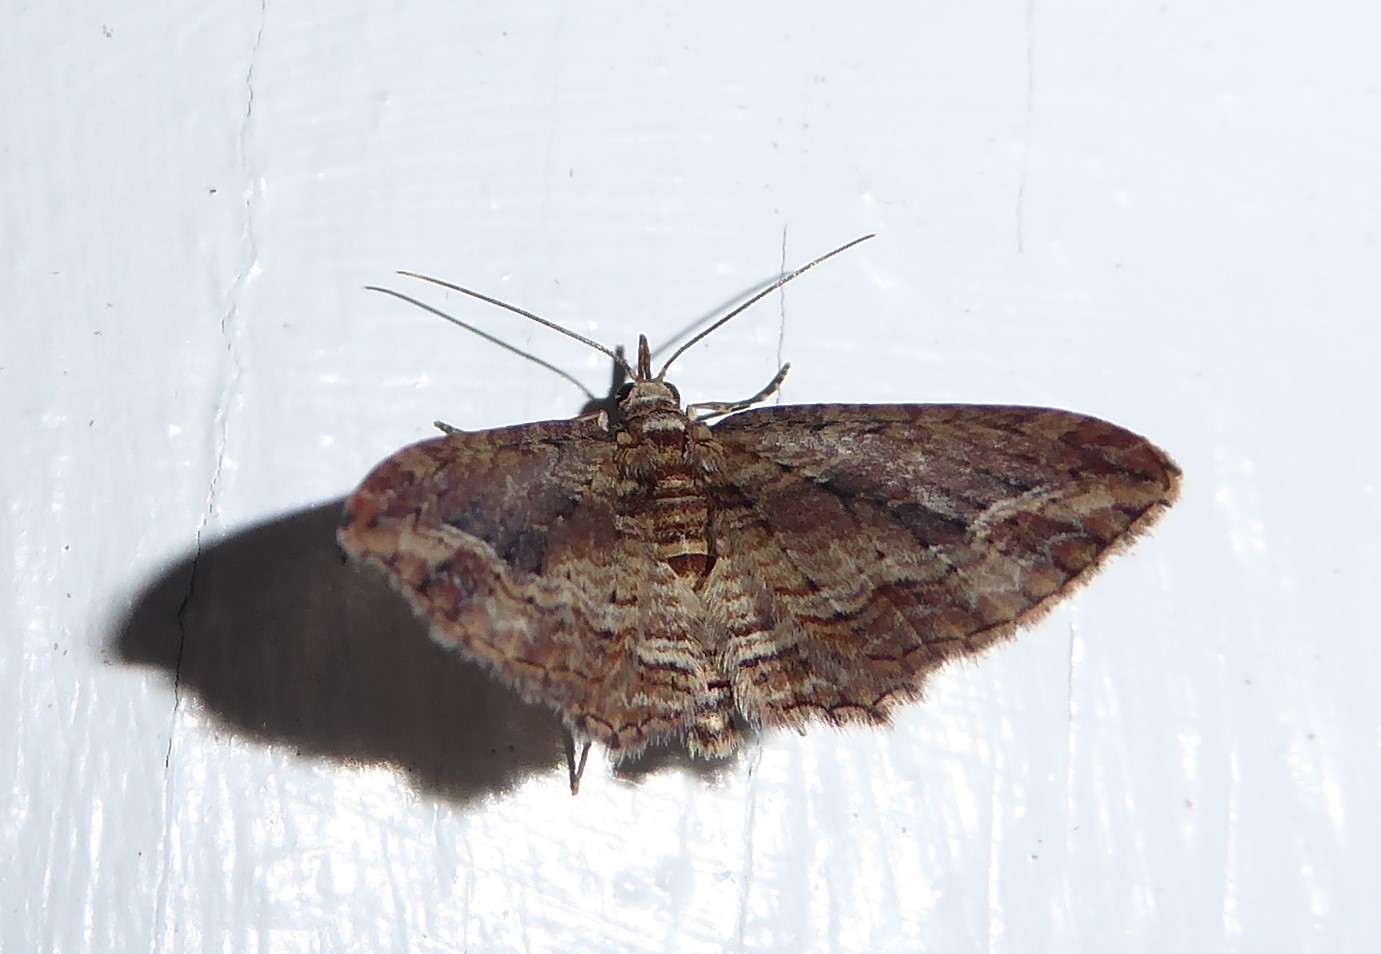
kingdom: Animalia
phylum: Arthropoda
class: Insecta
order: Lepidoptera
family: Geometridae
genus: Chloroclystis
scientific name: Chloroclystis filata
